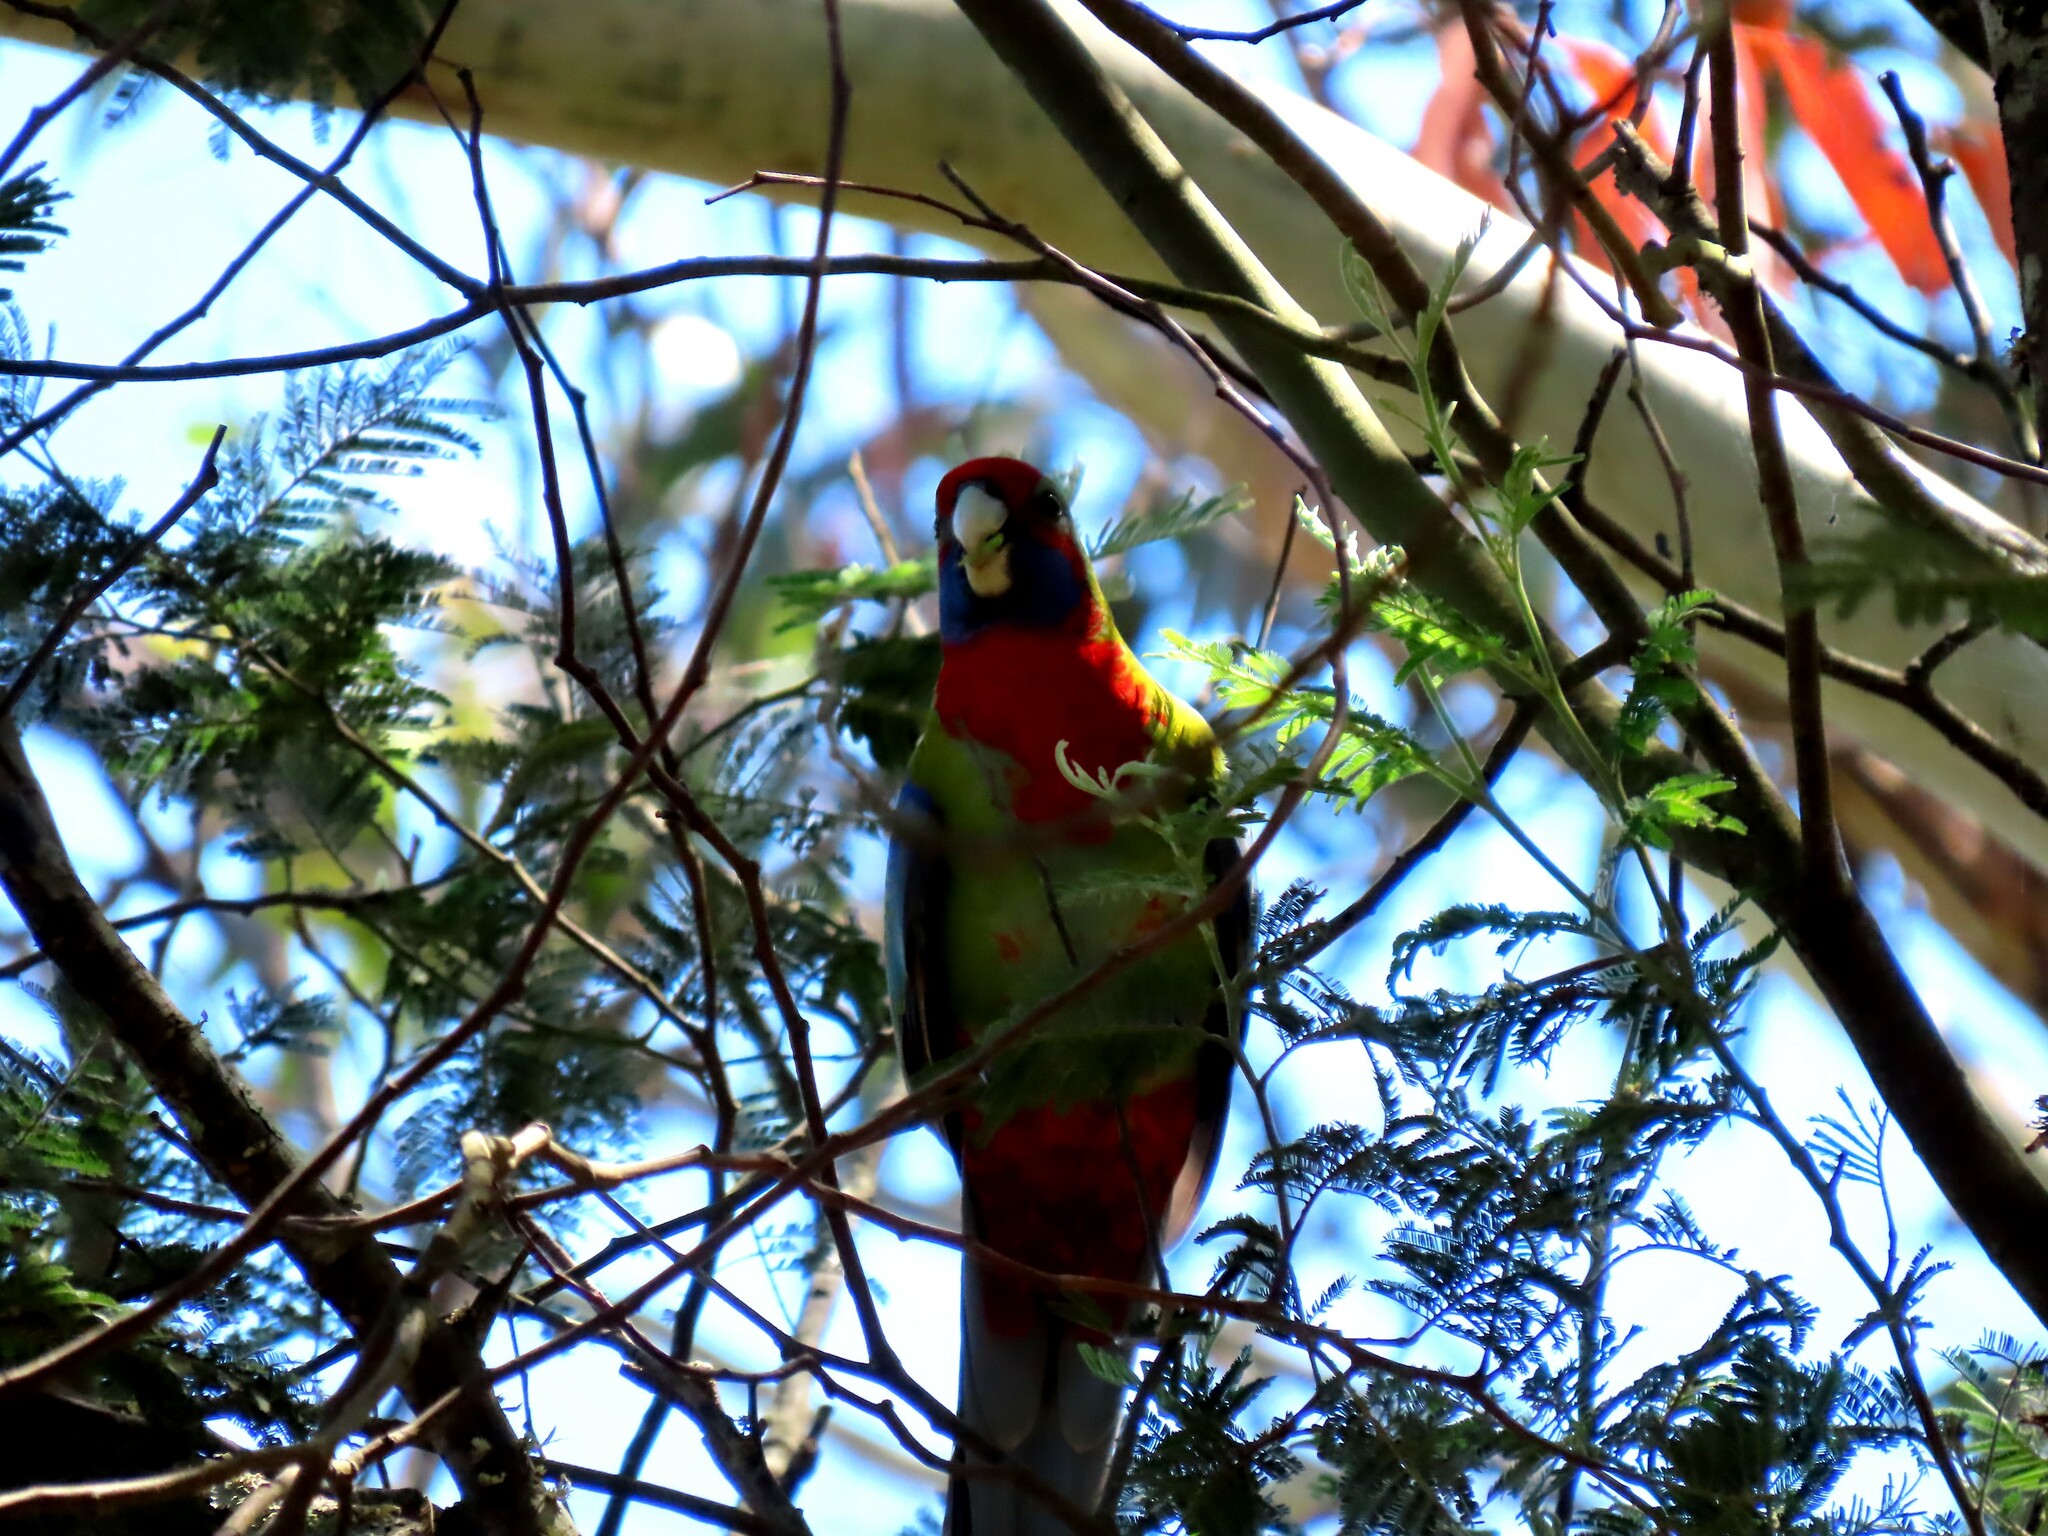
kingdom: Animalia
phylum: Chordata
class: Aves
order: Psittaciformes
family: Psittacidae
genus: Platycercus
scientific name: Platycercus elegans
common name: Crimson rosella
